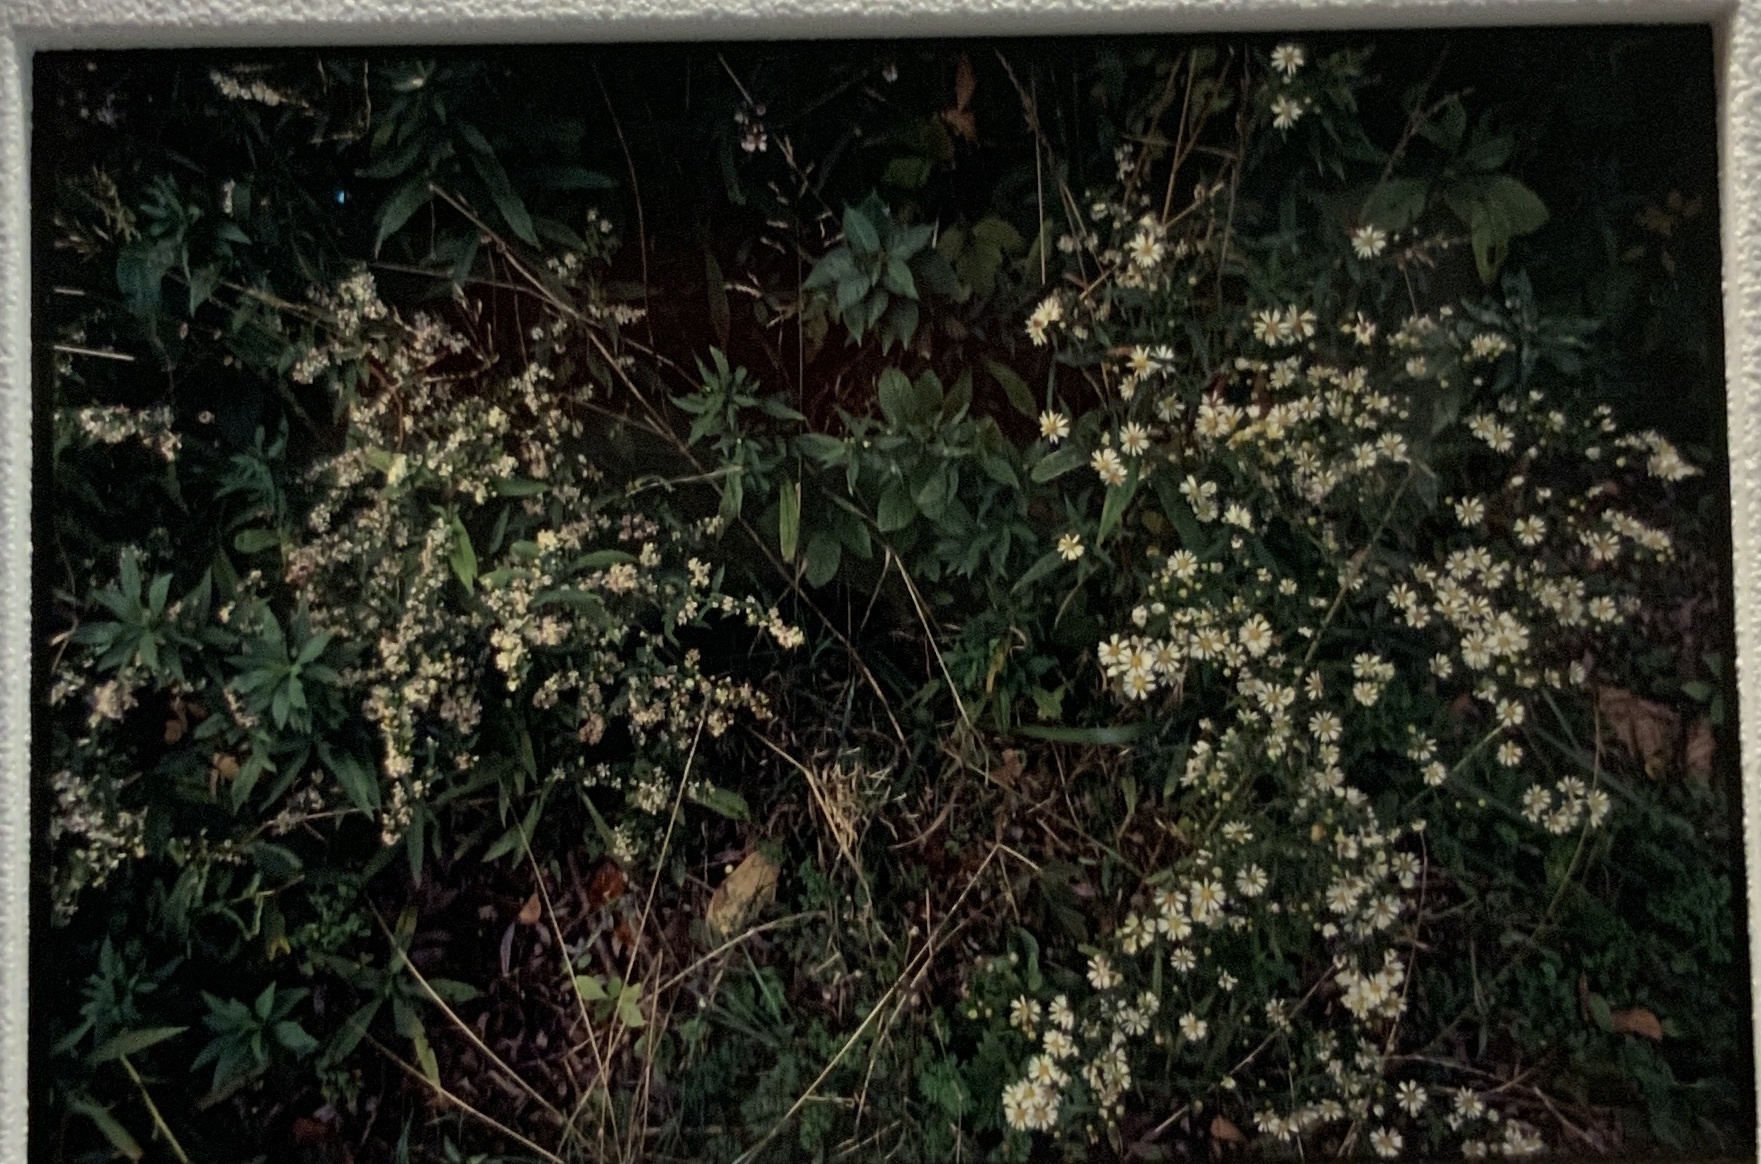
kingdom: Plantae
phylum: Tracheophyta
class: Magnoliopsida
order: Asterales
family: Asteraceae
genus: Symphyotrichum
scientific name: Symphyotrichum lateriflorum
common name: Calico aster
